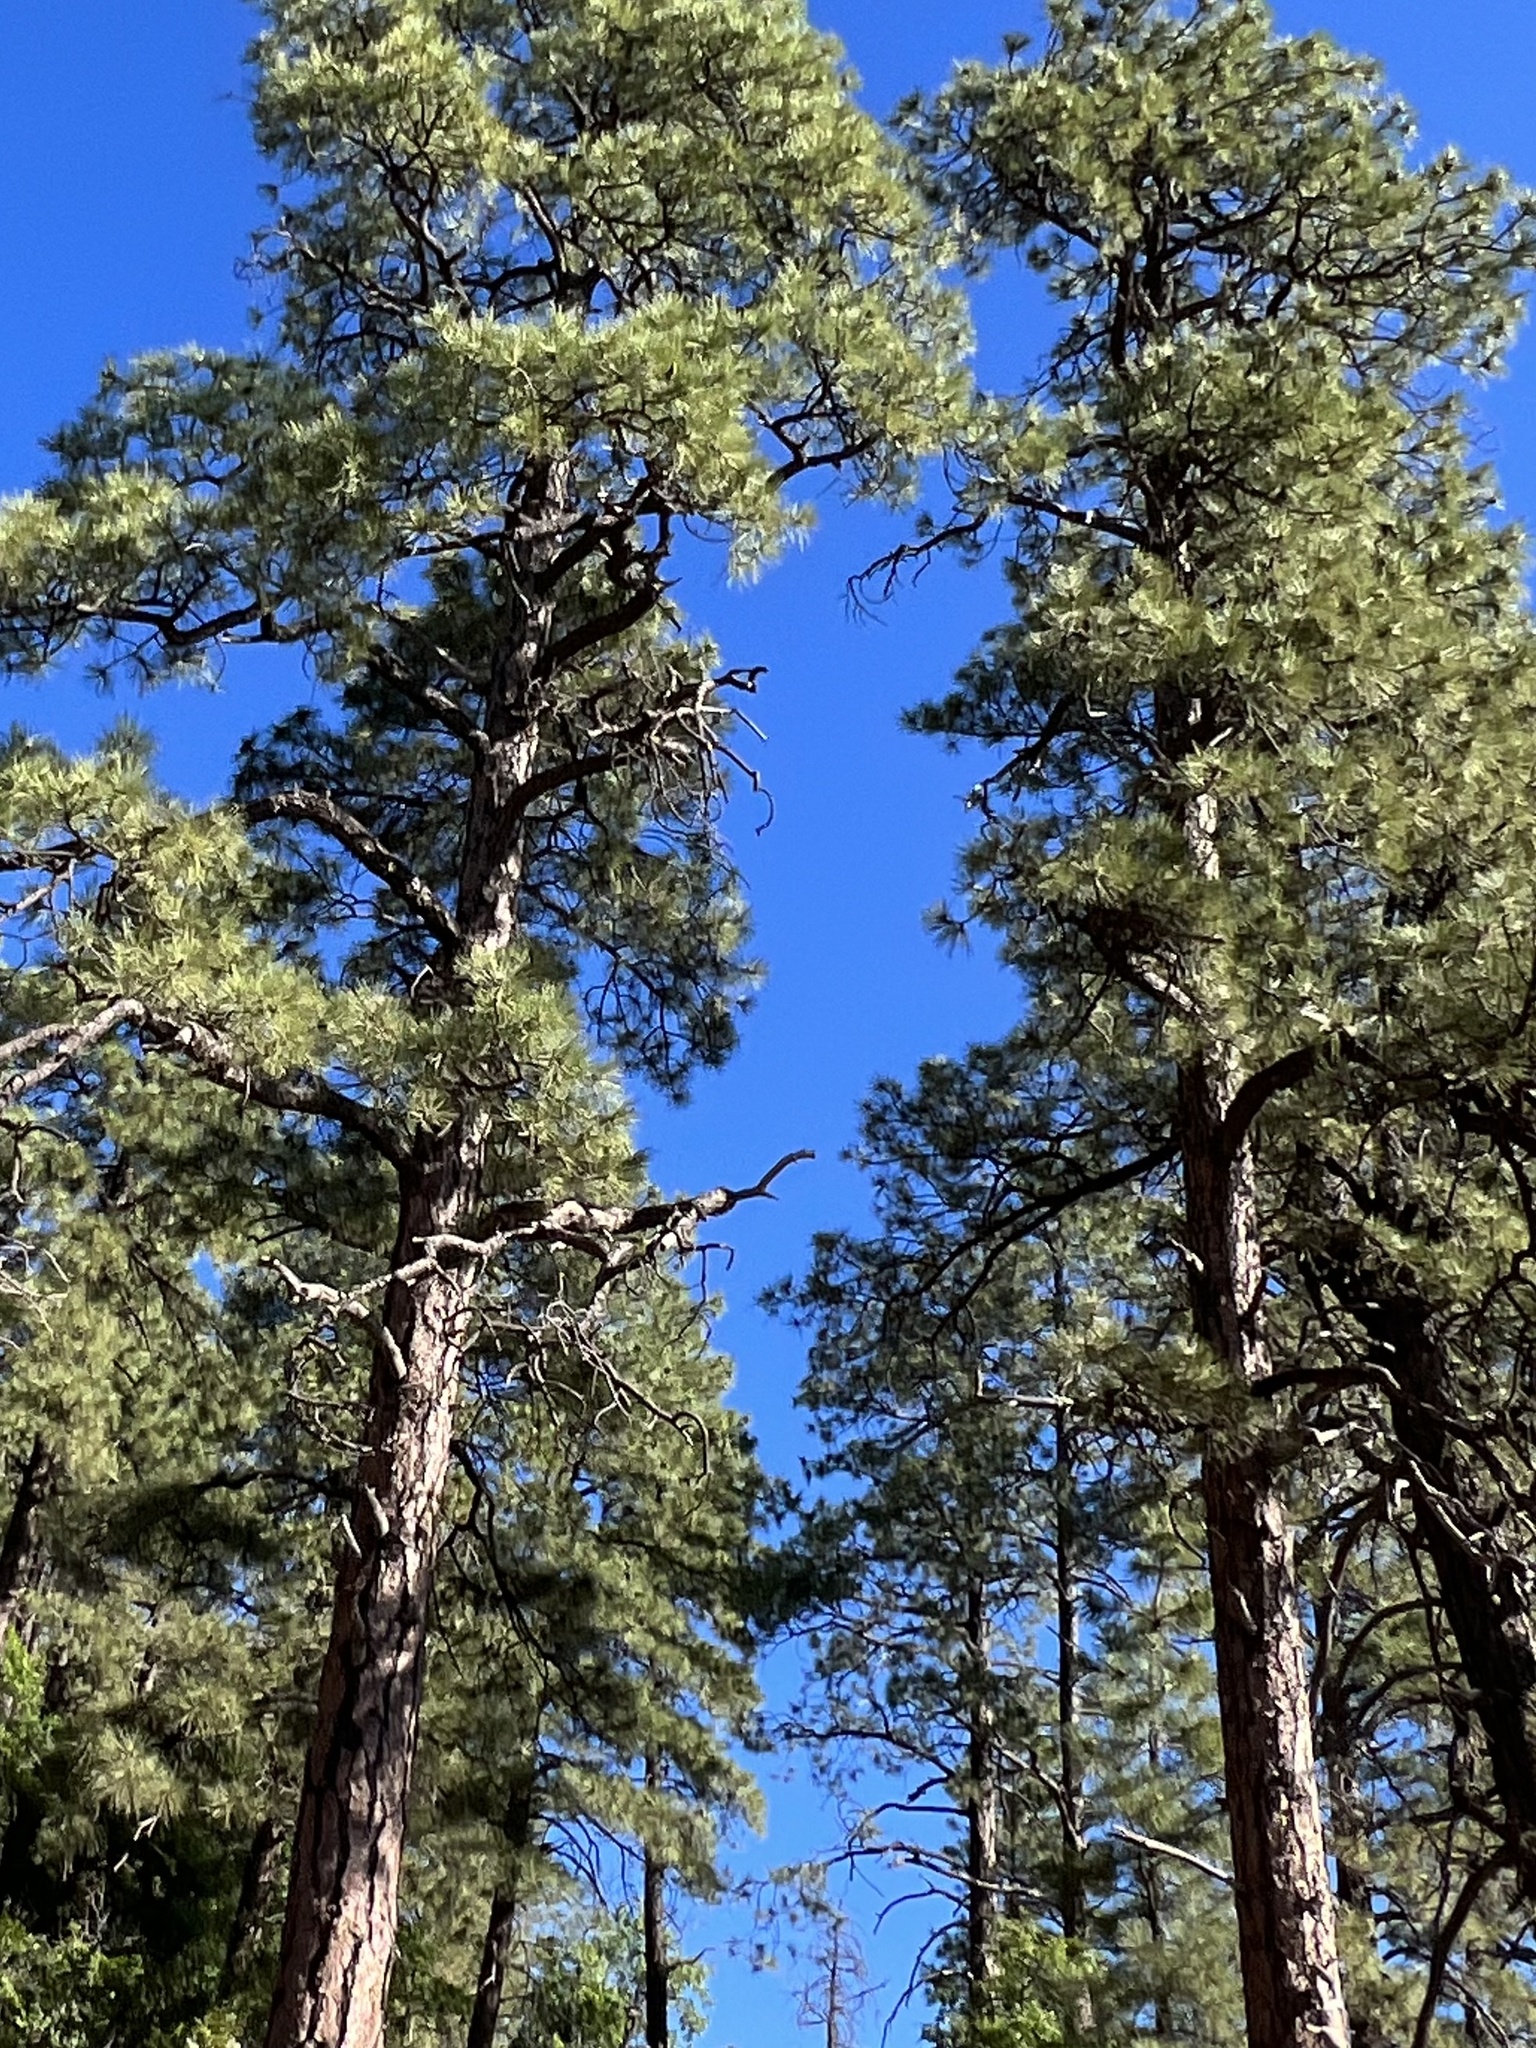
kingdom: Plantae
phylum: Tracheophyta
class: Pinopsida
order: Pinales
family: Pinaceae
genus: Pinus
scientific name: Pinus ponderosa
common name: Western yellow-pine
